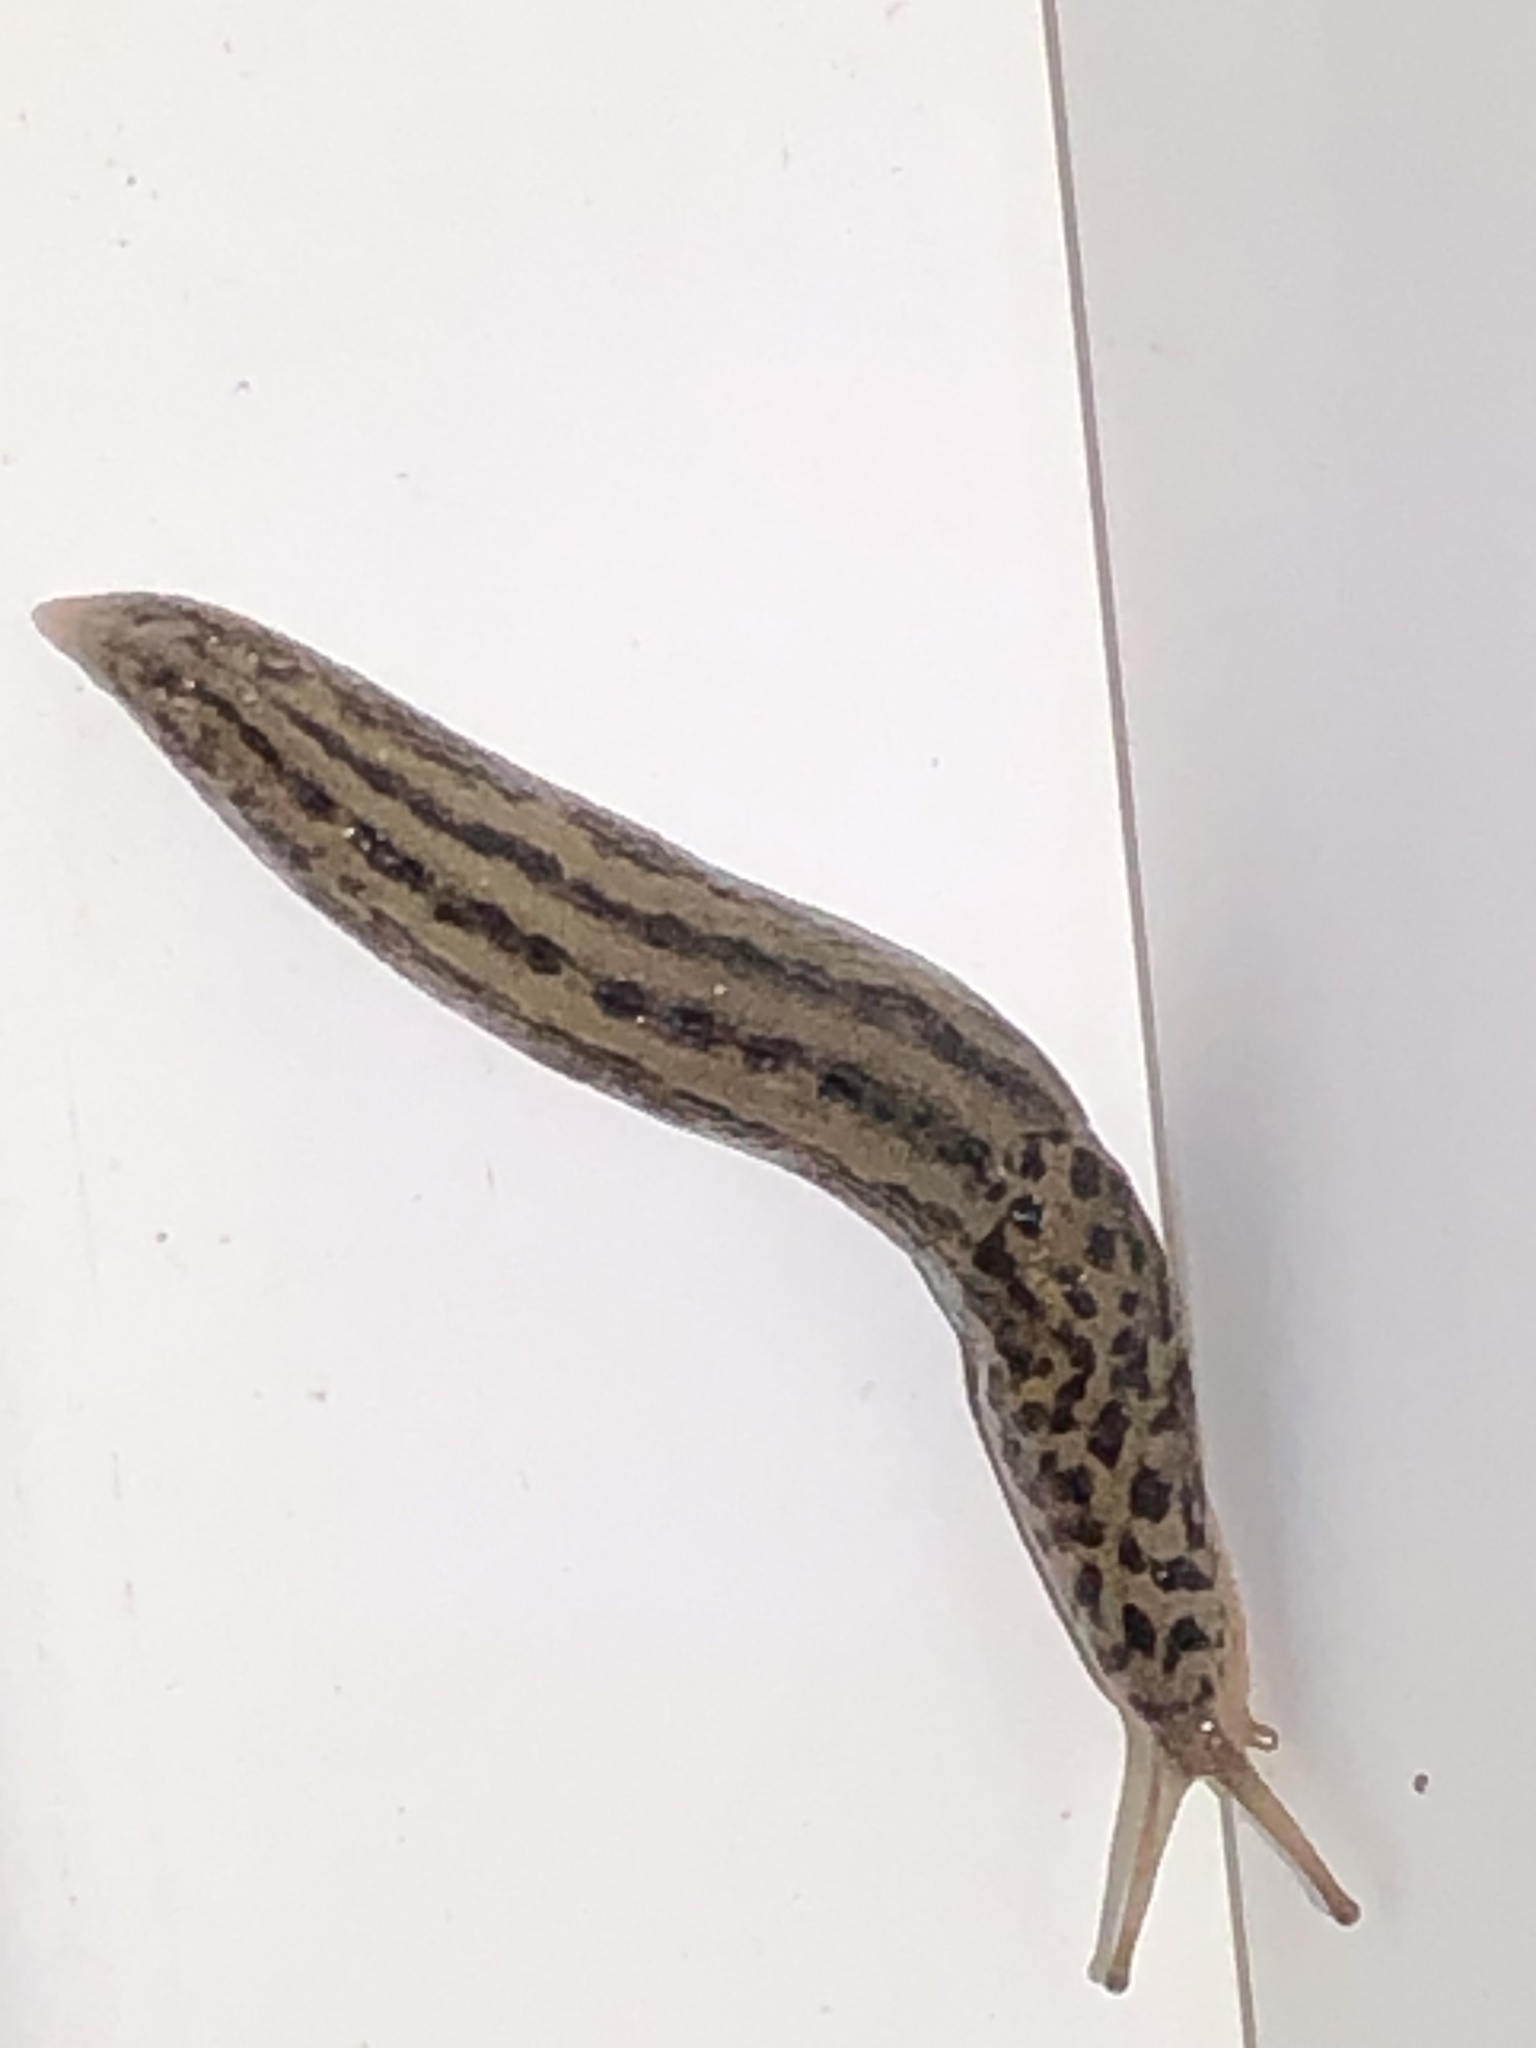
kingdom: Animalia
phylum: Mollusca
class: Gastropoda
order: Stylommatophora
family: Limacidae
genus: Limax
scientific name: Limax maximus
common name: Great grey slug
